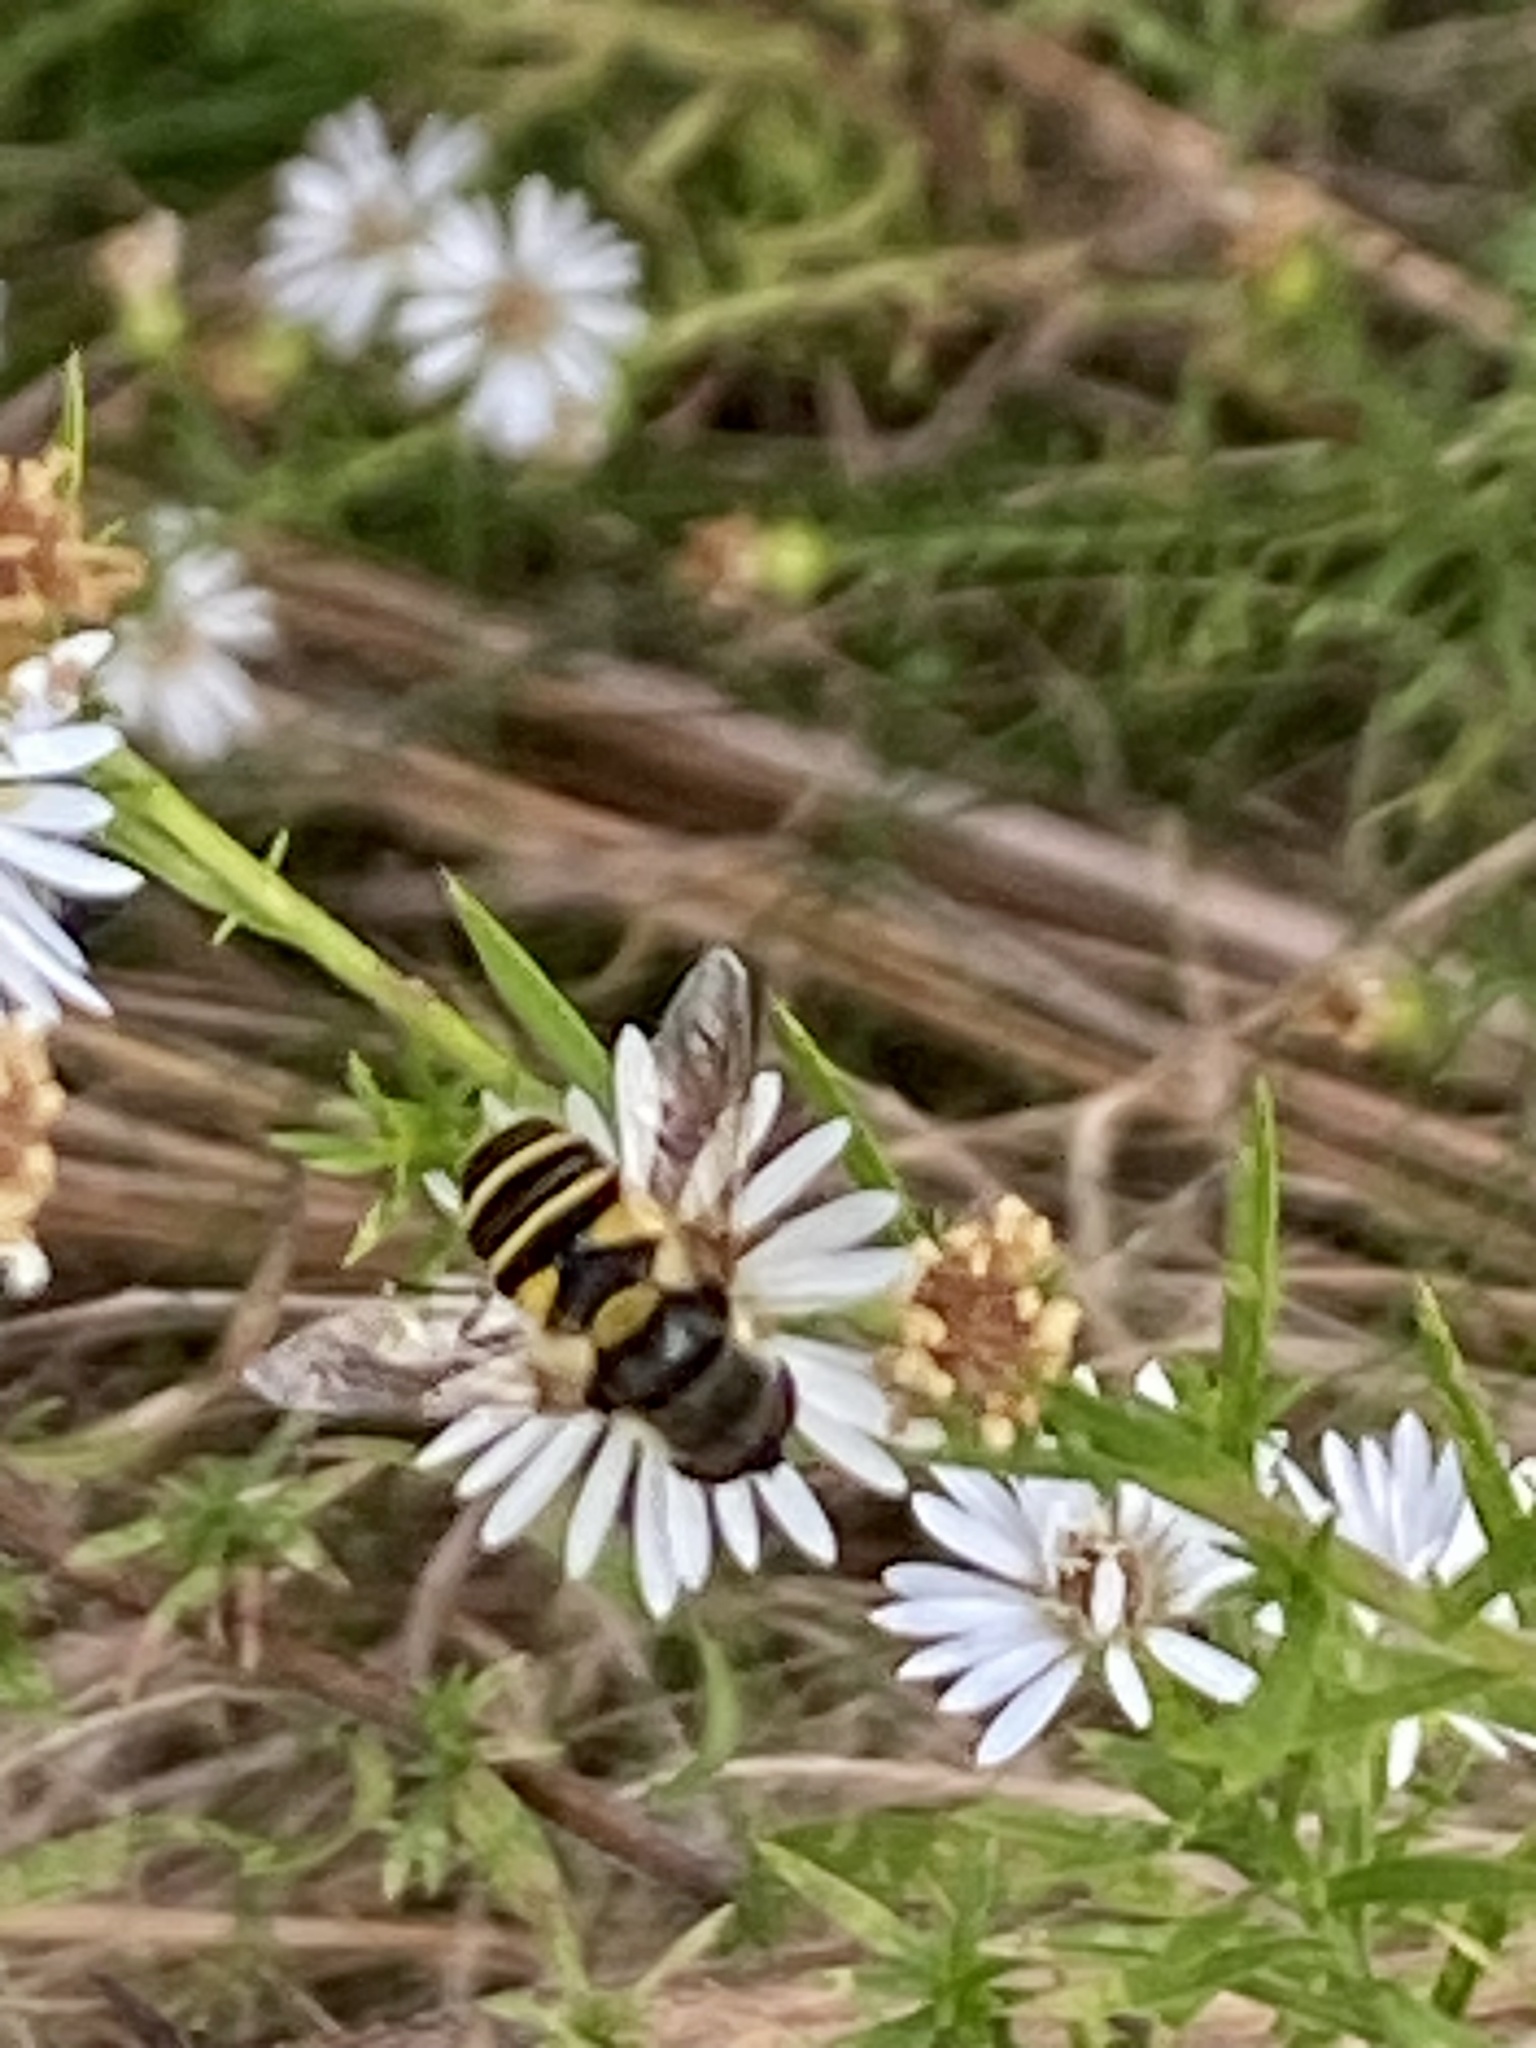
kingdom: Animalia
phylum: Arthropoda
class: Insecta
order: Diptera
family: Syrphidae
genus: Eristalis
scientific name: Eristalis transversa
